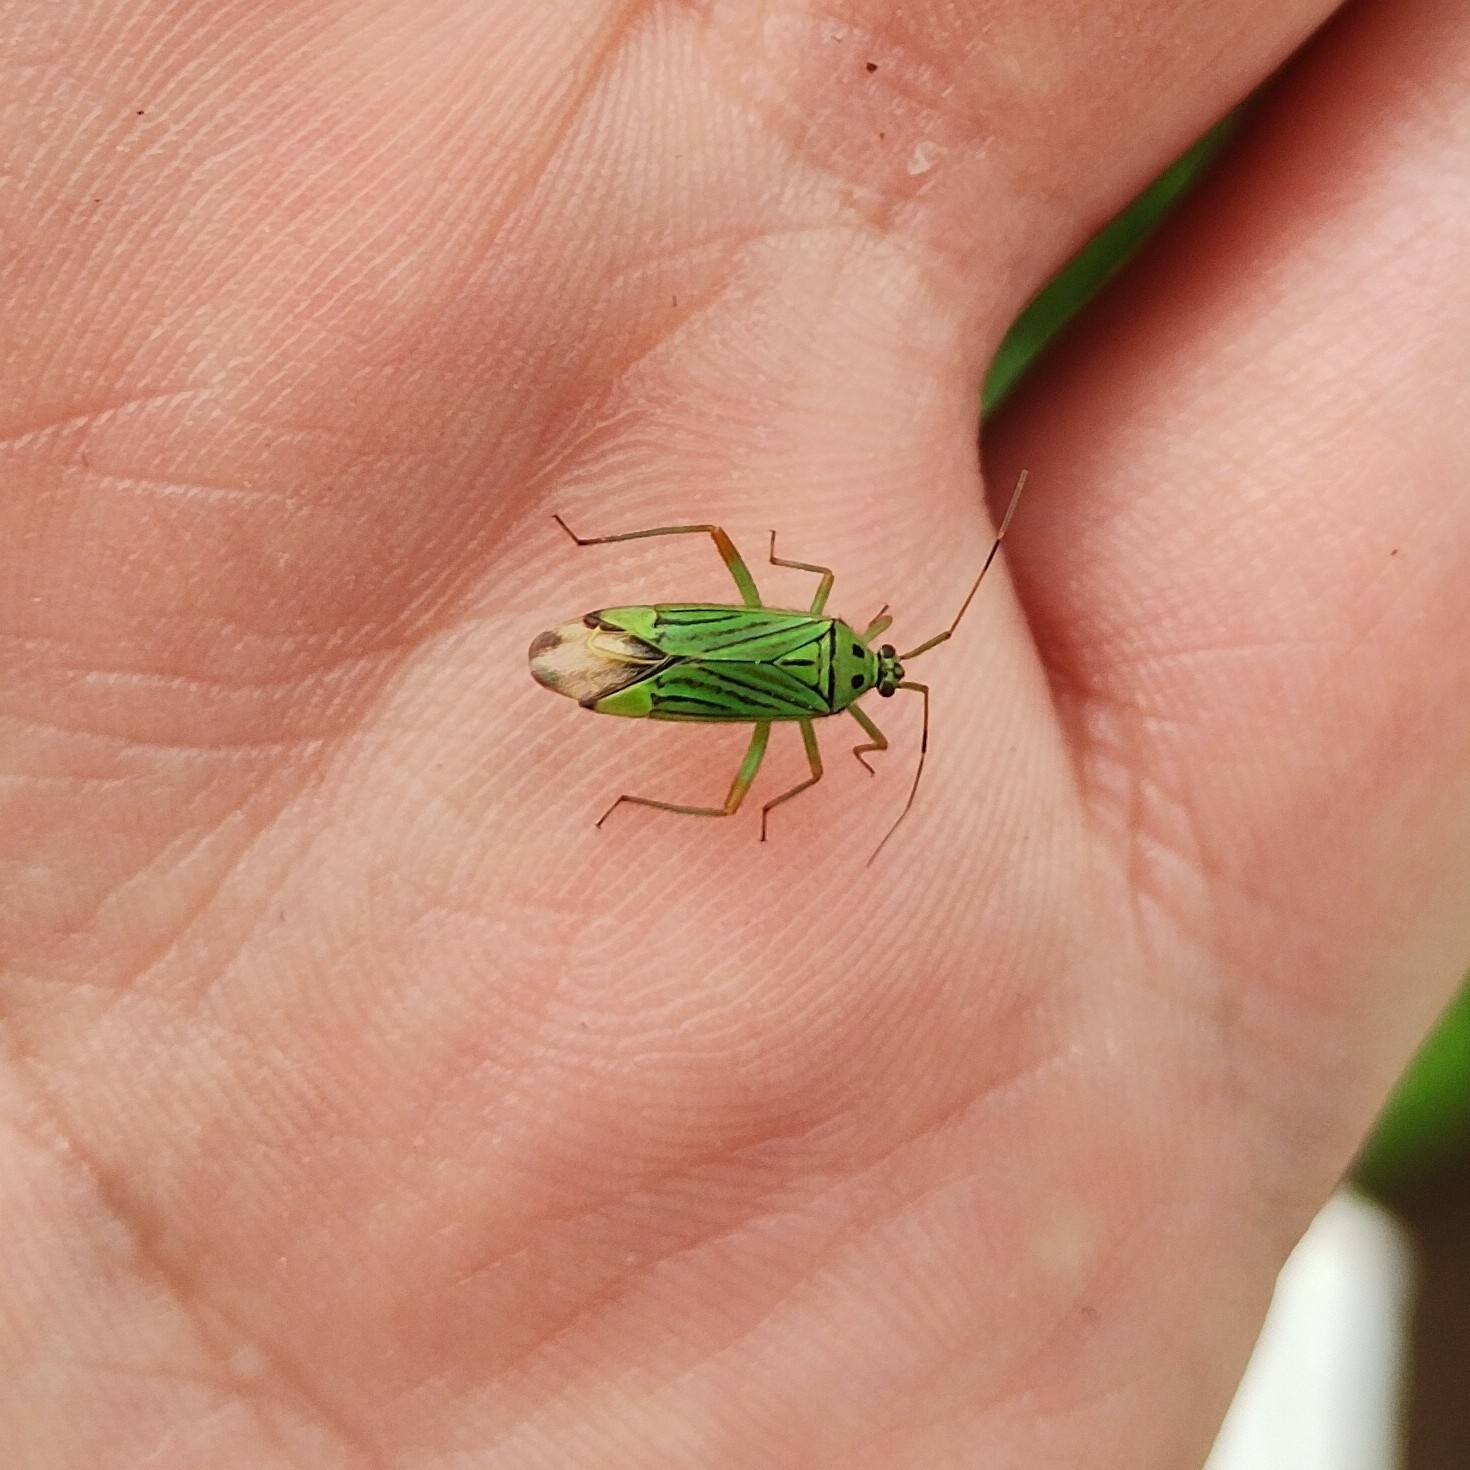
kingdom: Animalia
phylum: Arthropoda
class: Insecta
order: Hemiptera
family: Miridae
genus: Mermitelocerus
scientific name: Mermitelocerus schmidtii
